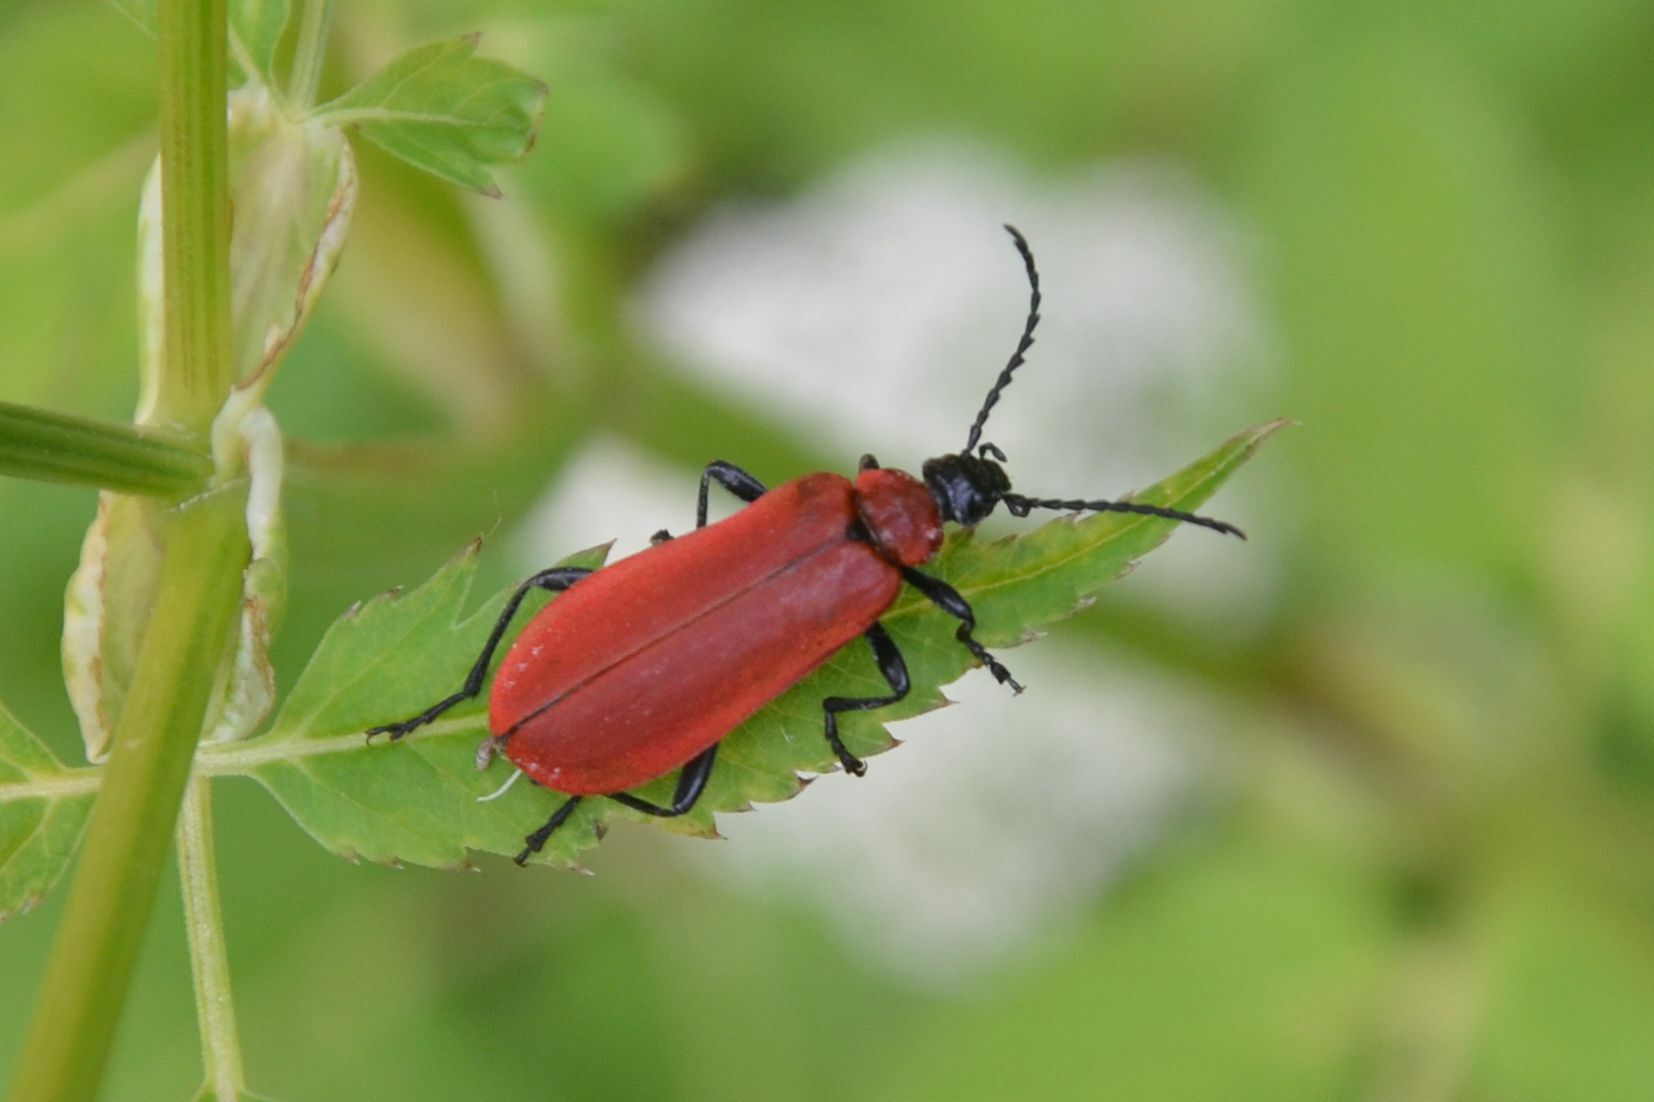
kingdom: Animalia
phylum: Arthropoda
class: Insecta
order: Coleoptera
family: Pyrochroidae
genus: Pyrochroa
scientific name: Pyrochroa coccinea
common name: Black-headed cardinal beetle
